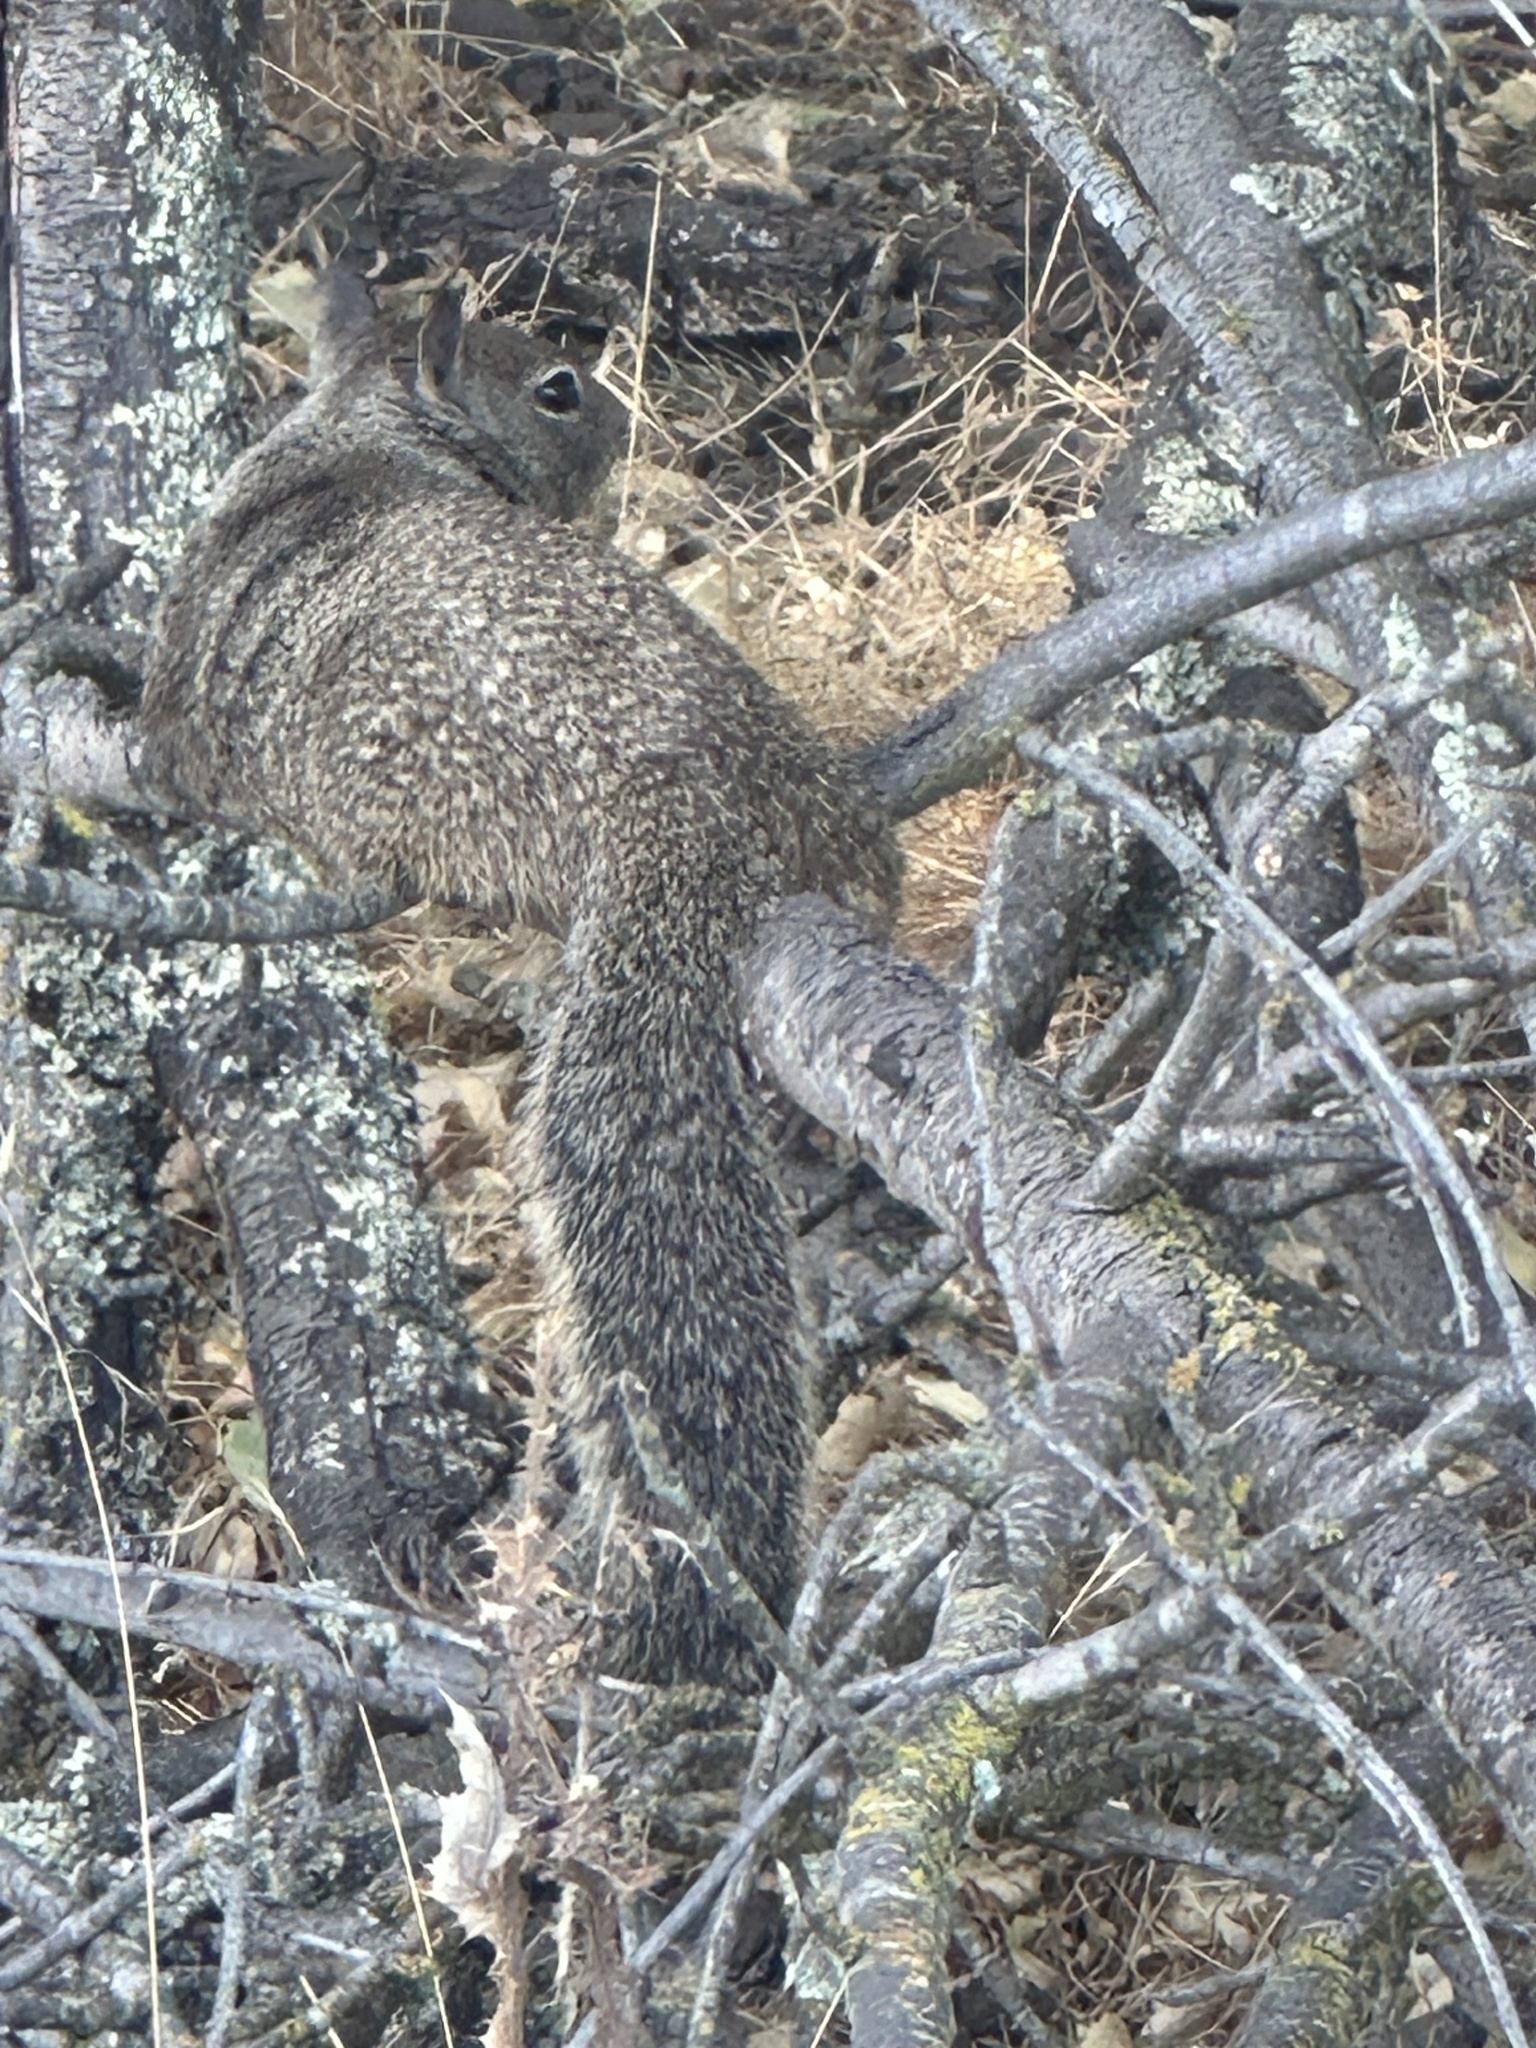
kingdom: Animalia
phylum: Chordata
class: Mammalia
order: Rodentia
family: Sciuridae
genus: Otospermophilus
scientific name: Otospermophilus beecheyi
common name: California ground squirrel
